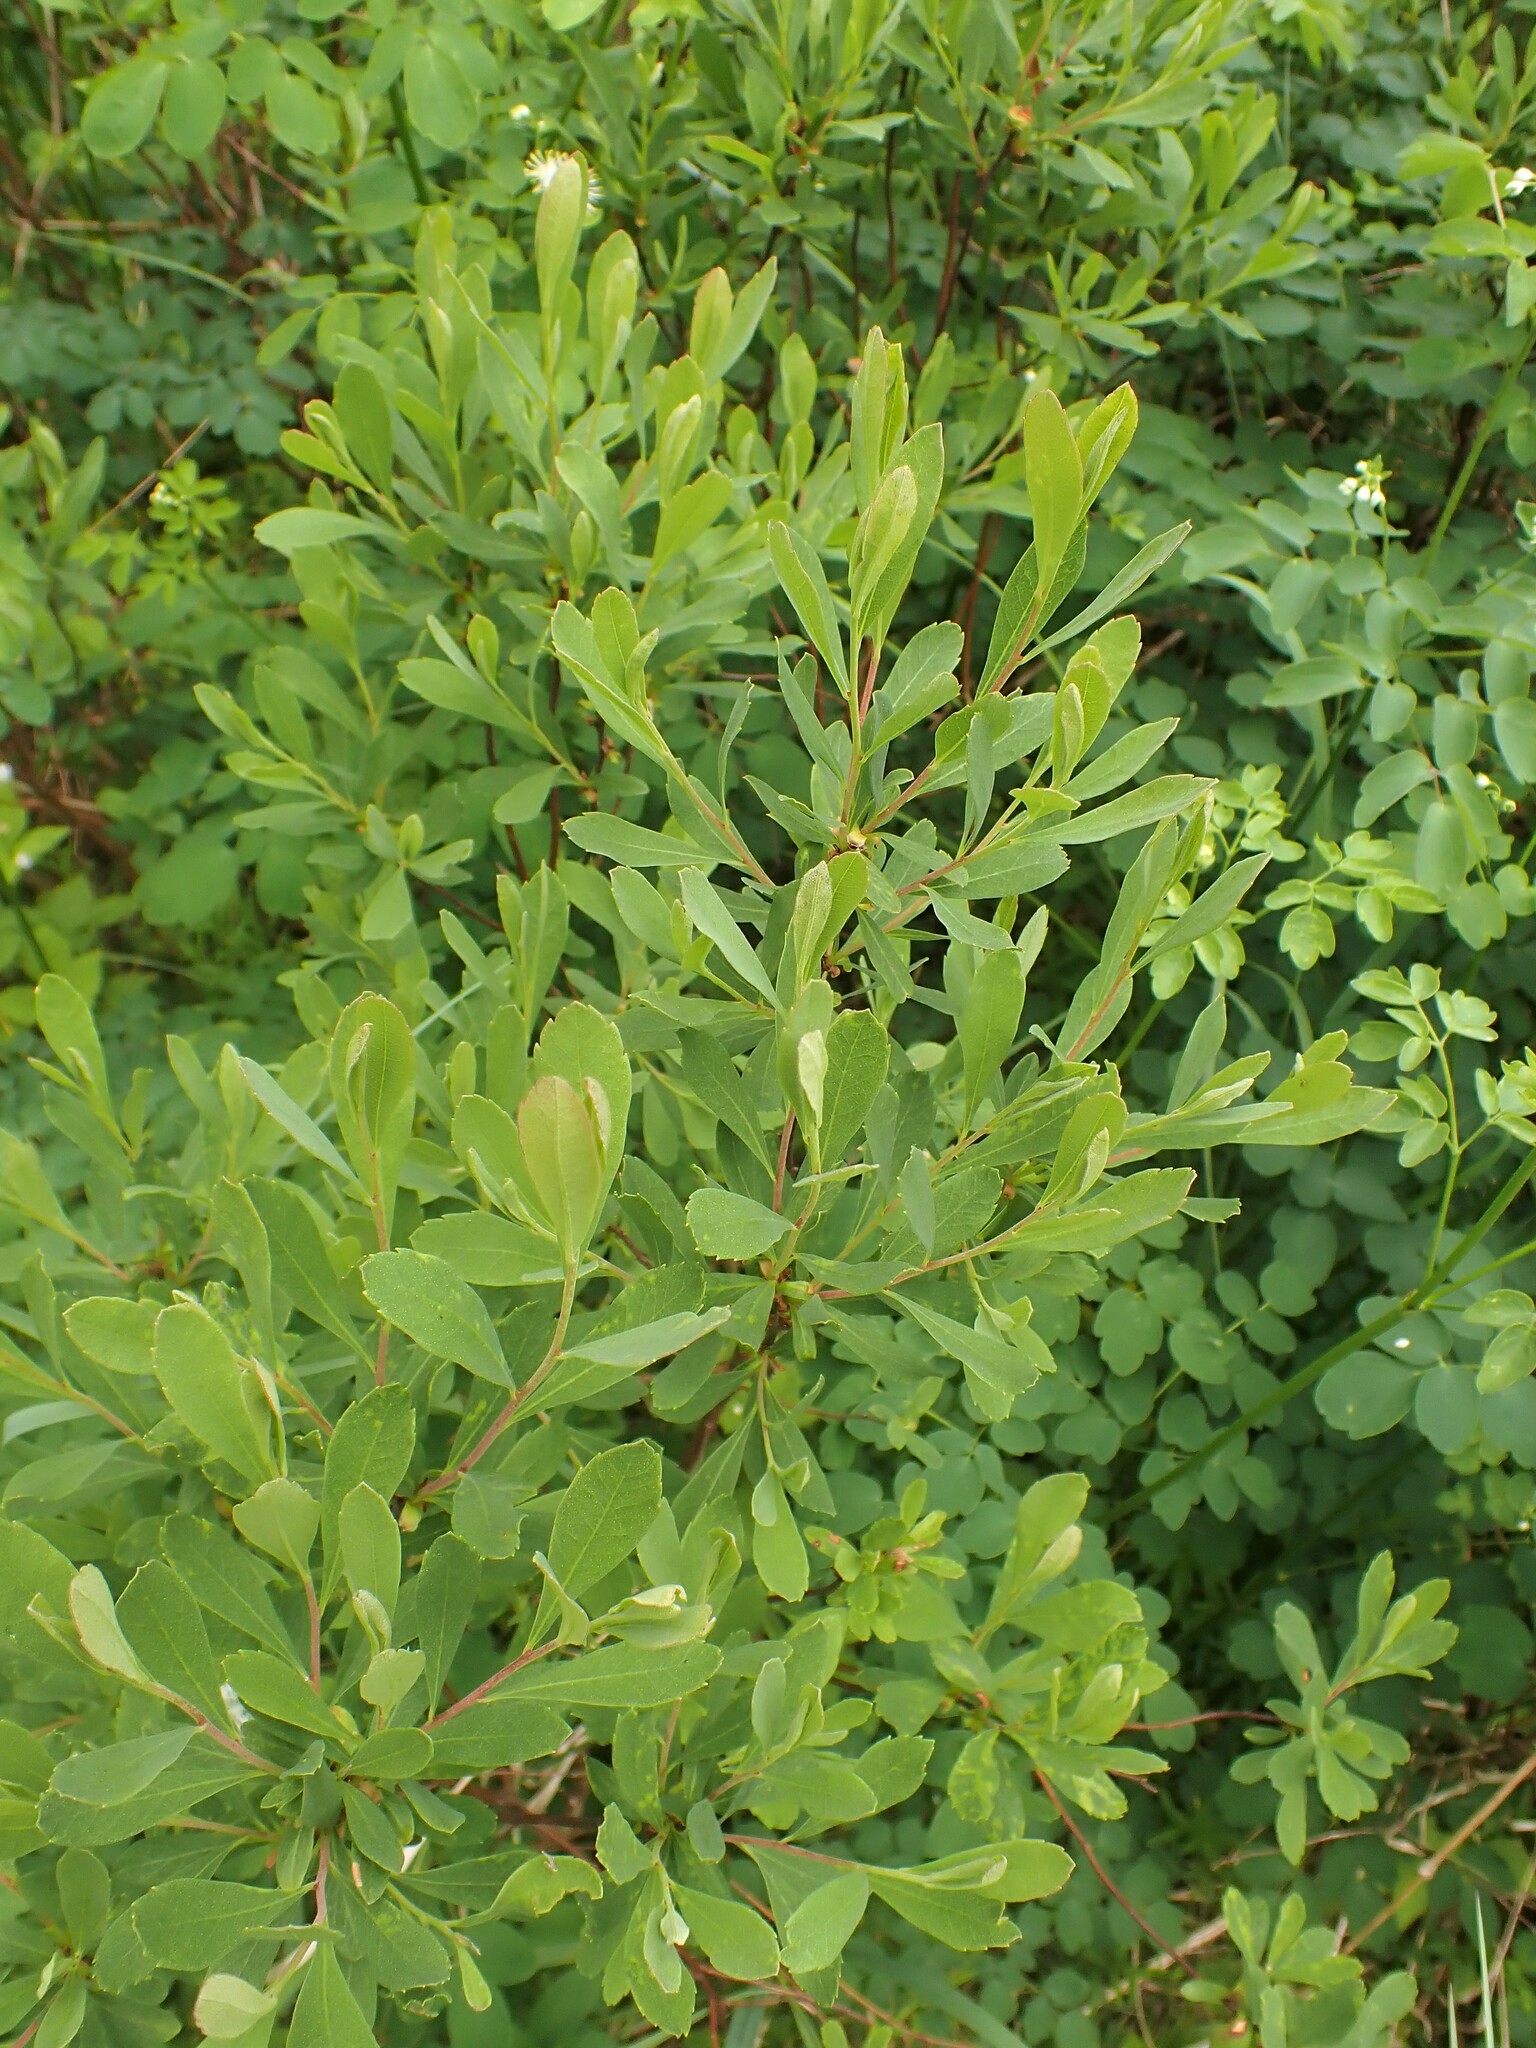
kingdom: Plantae
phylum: Tracheophyta
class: Magnoliopsida
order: Fagales
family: Myricaceae
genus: Myrica
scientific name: Myrica gale
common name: Sweet gale
